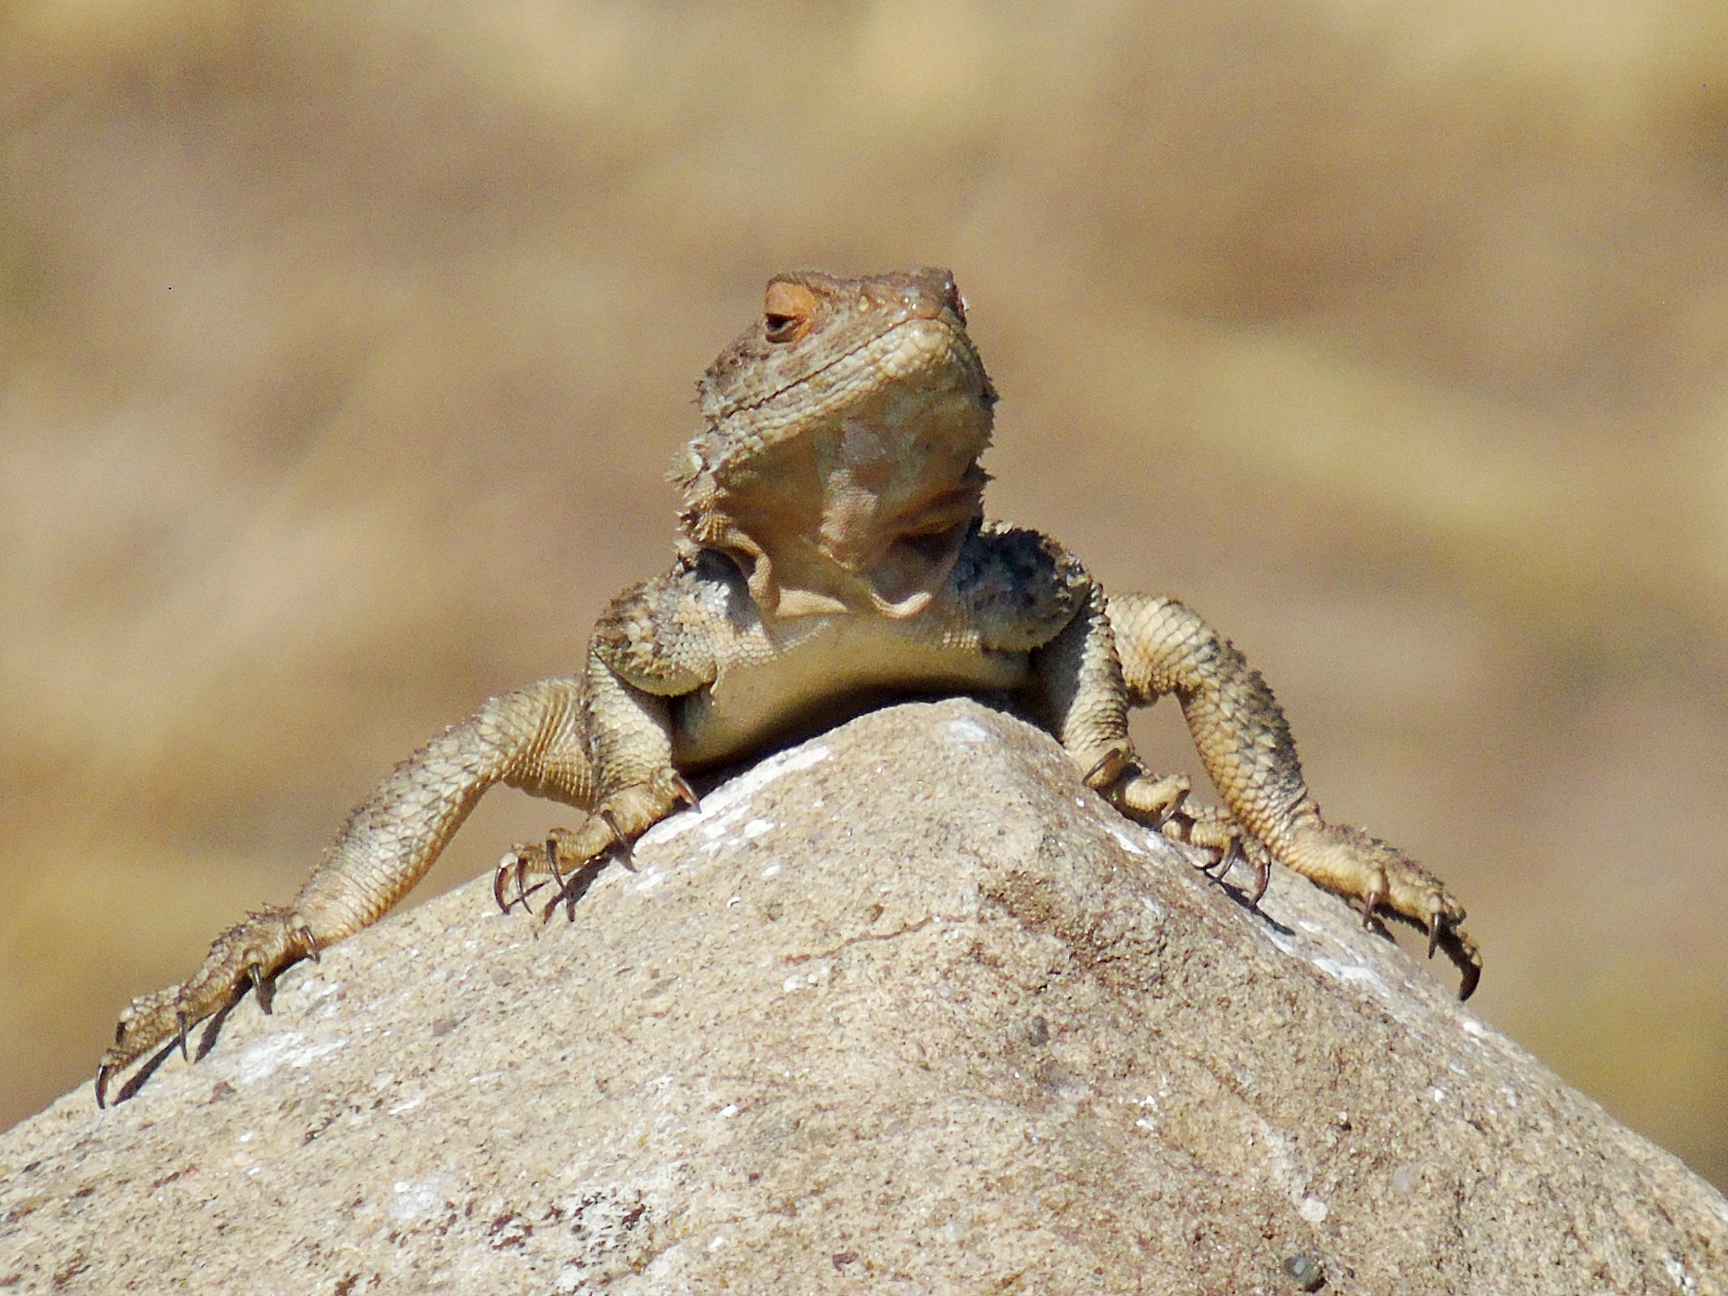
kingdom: Animalia
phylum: Chordata
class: Squamata
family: Agamidae
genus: Paralaudakia
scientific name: Paralaudakia caucasia
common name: Caucasian agama
